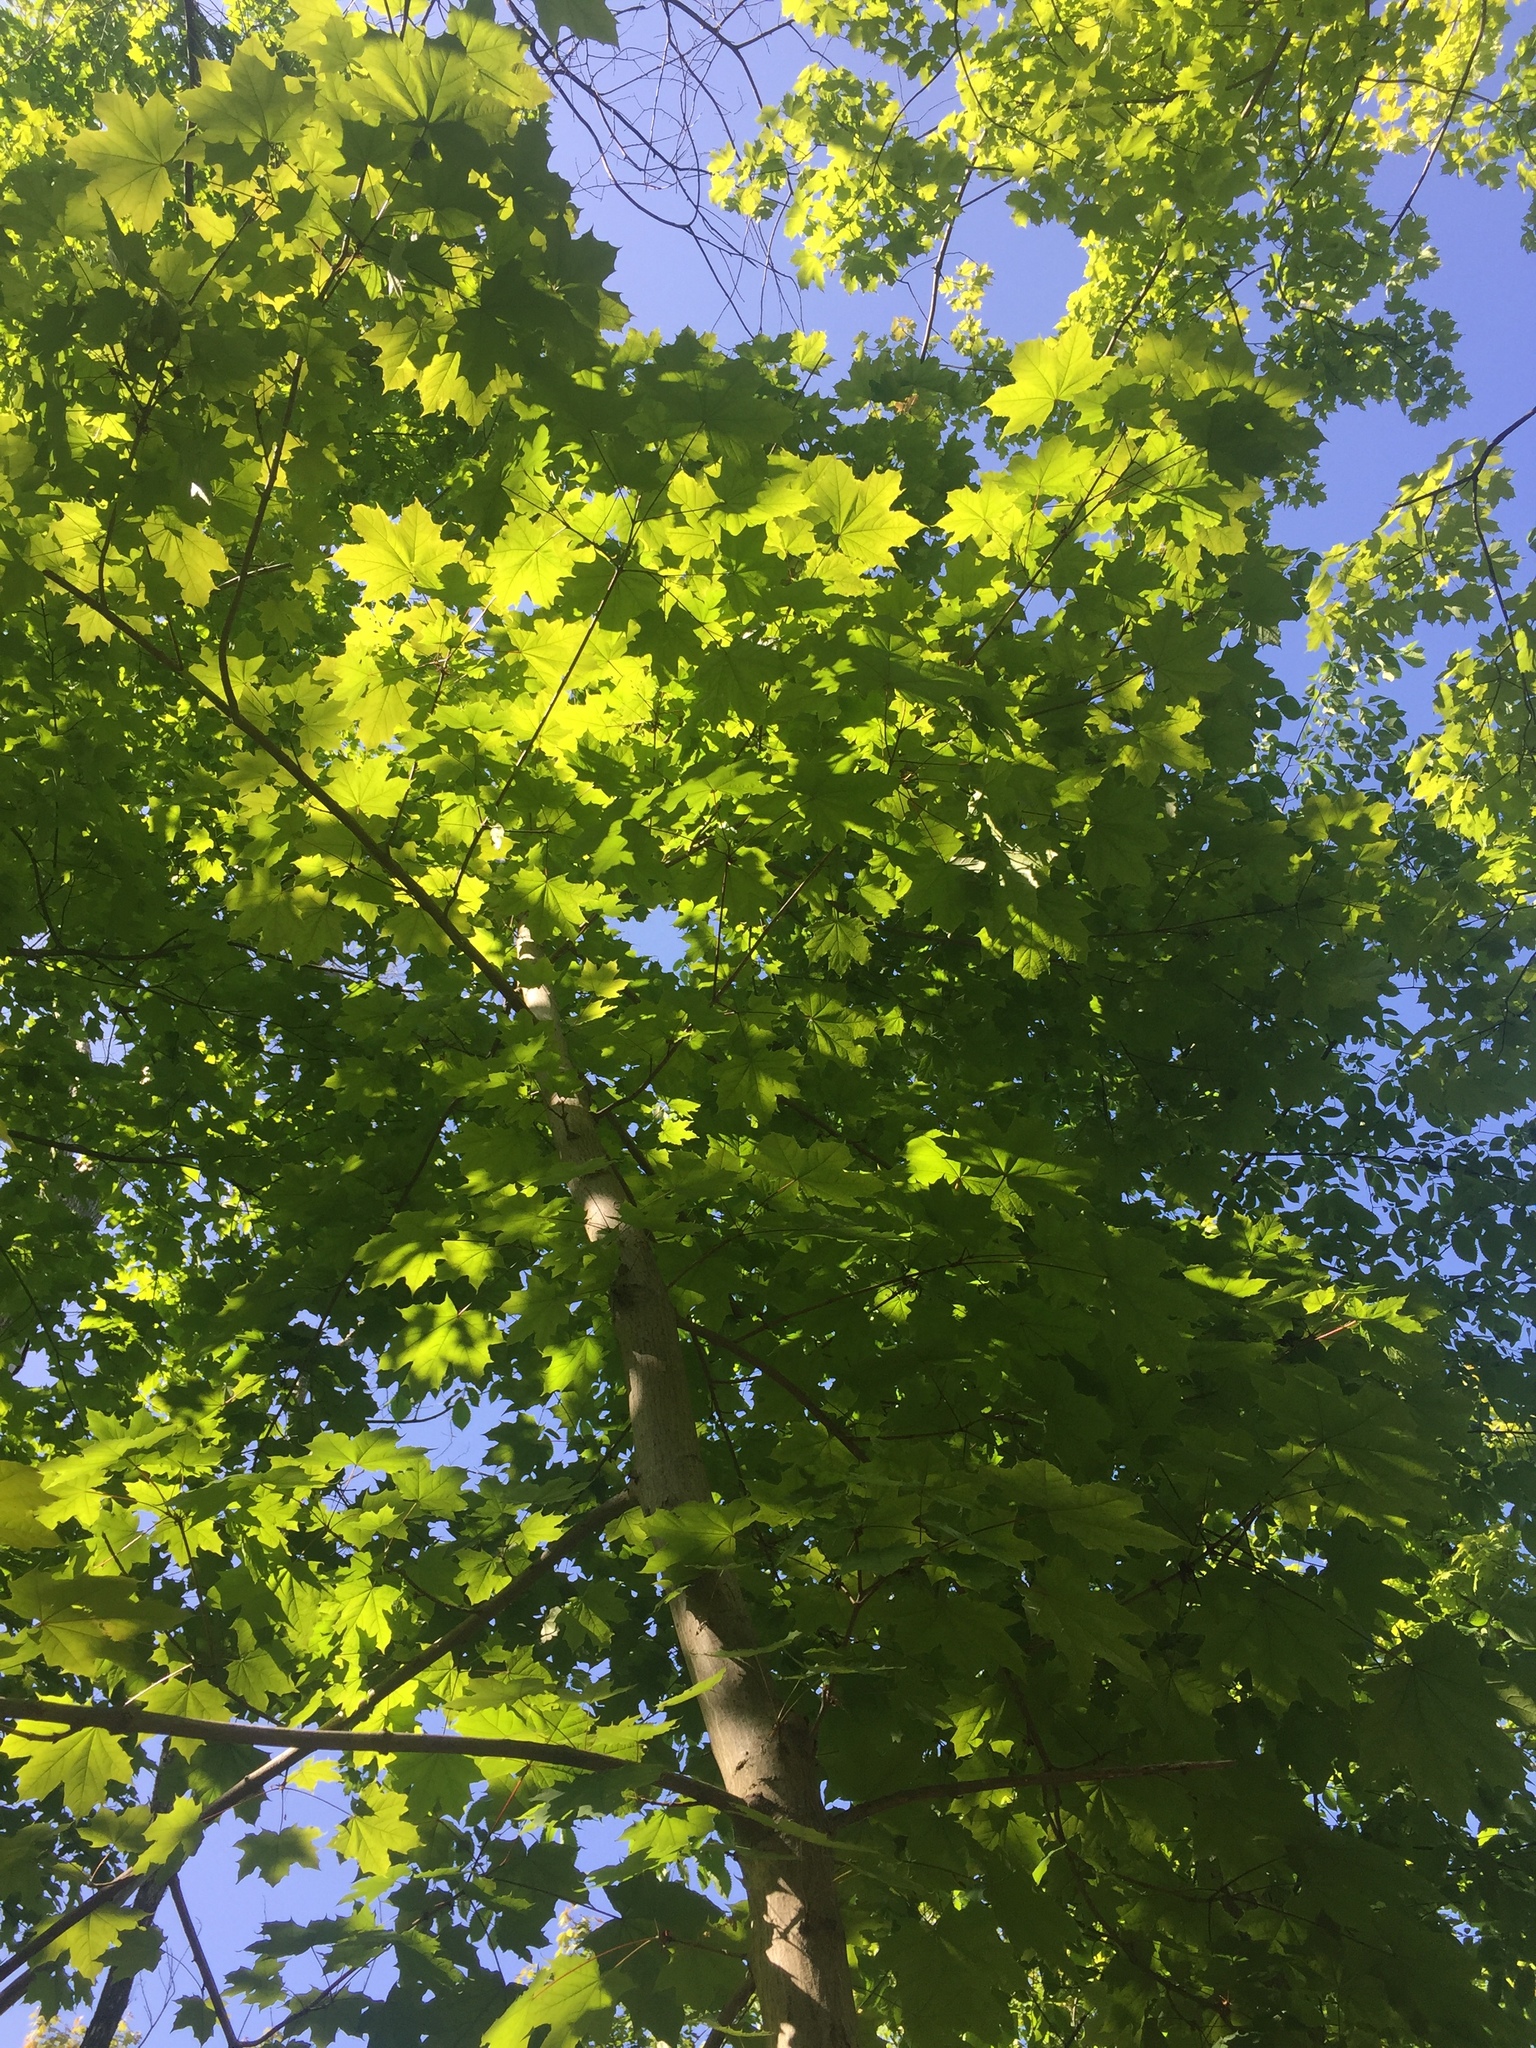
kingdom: Plantae
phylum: Tracheophyta
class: Magnoliopsida
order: Sapindales
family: Sapindaceae
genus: Acer
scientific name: Acer platanoides
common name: Norway maple
